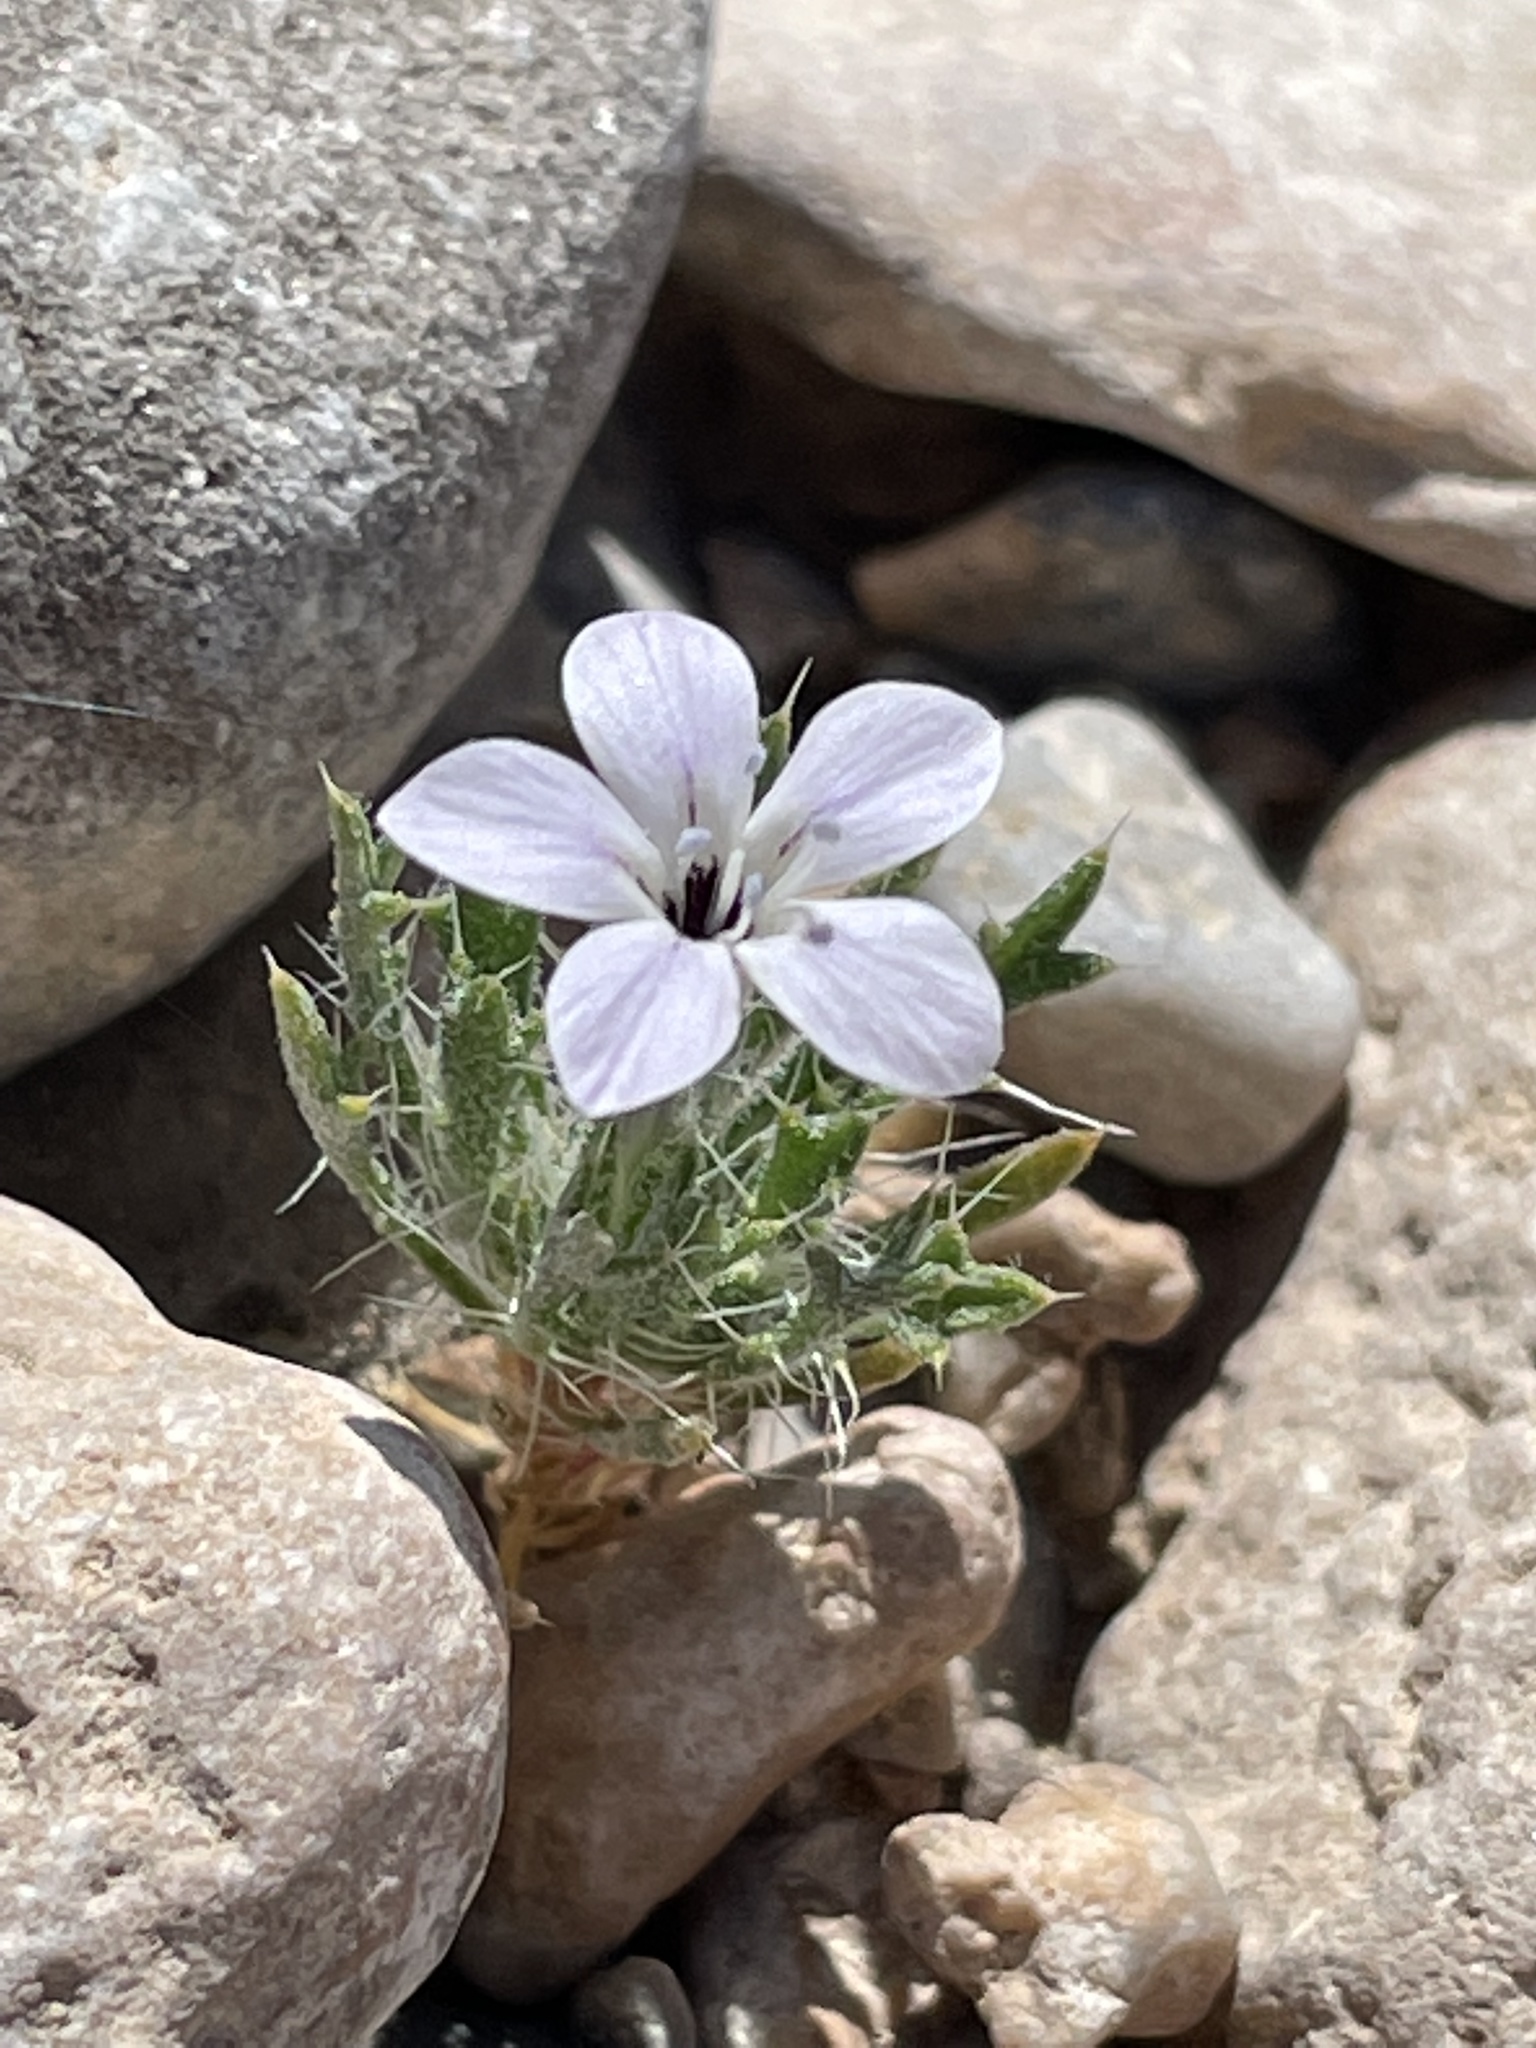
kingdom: Plantae
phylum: Tracheophyta
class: Magnoliopsida
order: Ericales
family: Polemoniaceae
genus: Langloisia
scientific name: Langloisia setosissima
